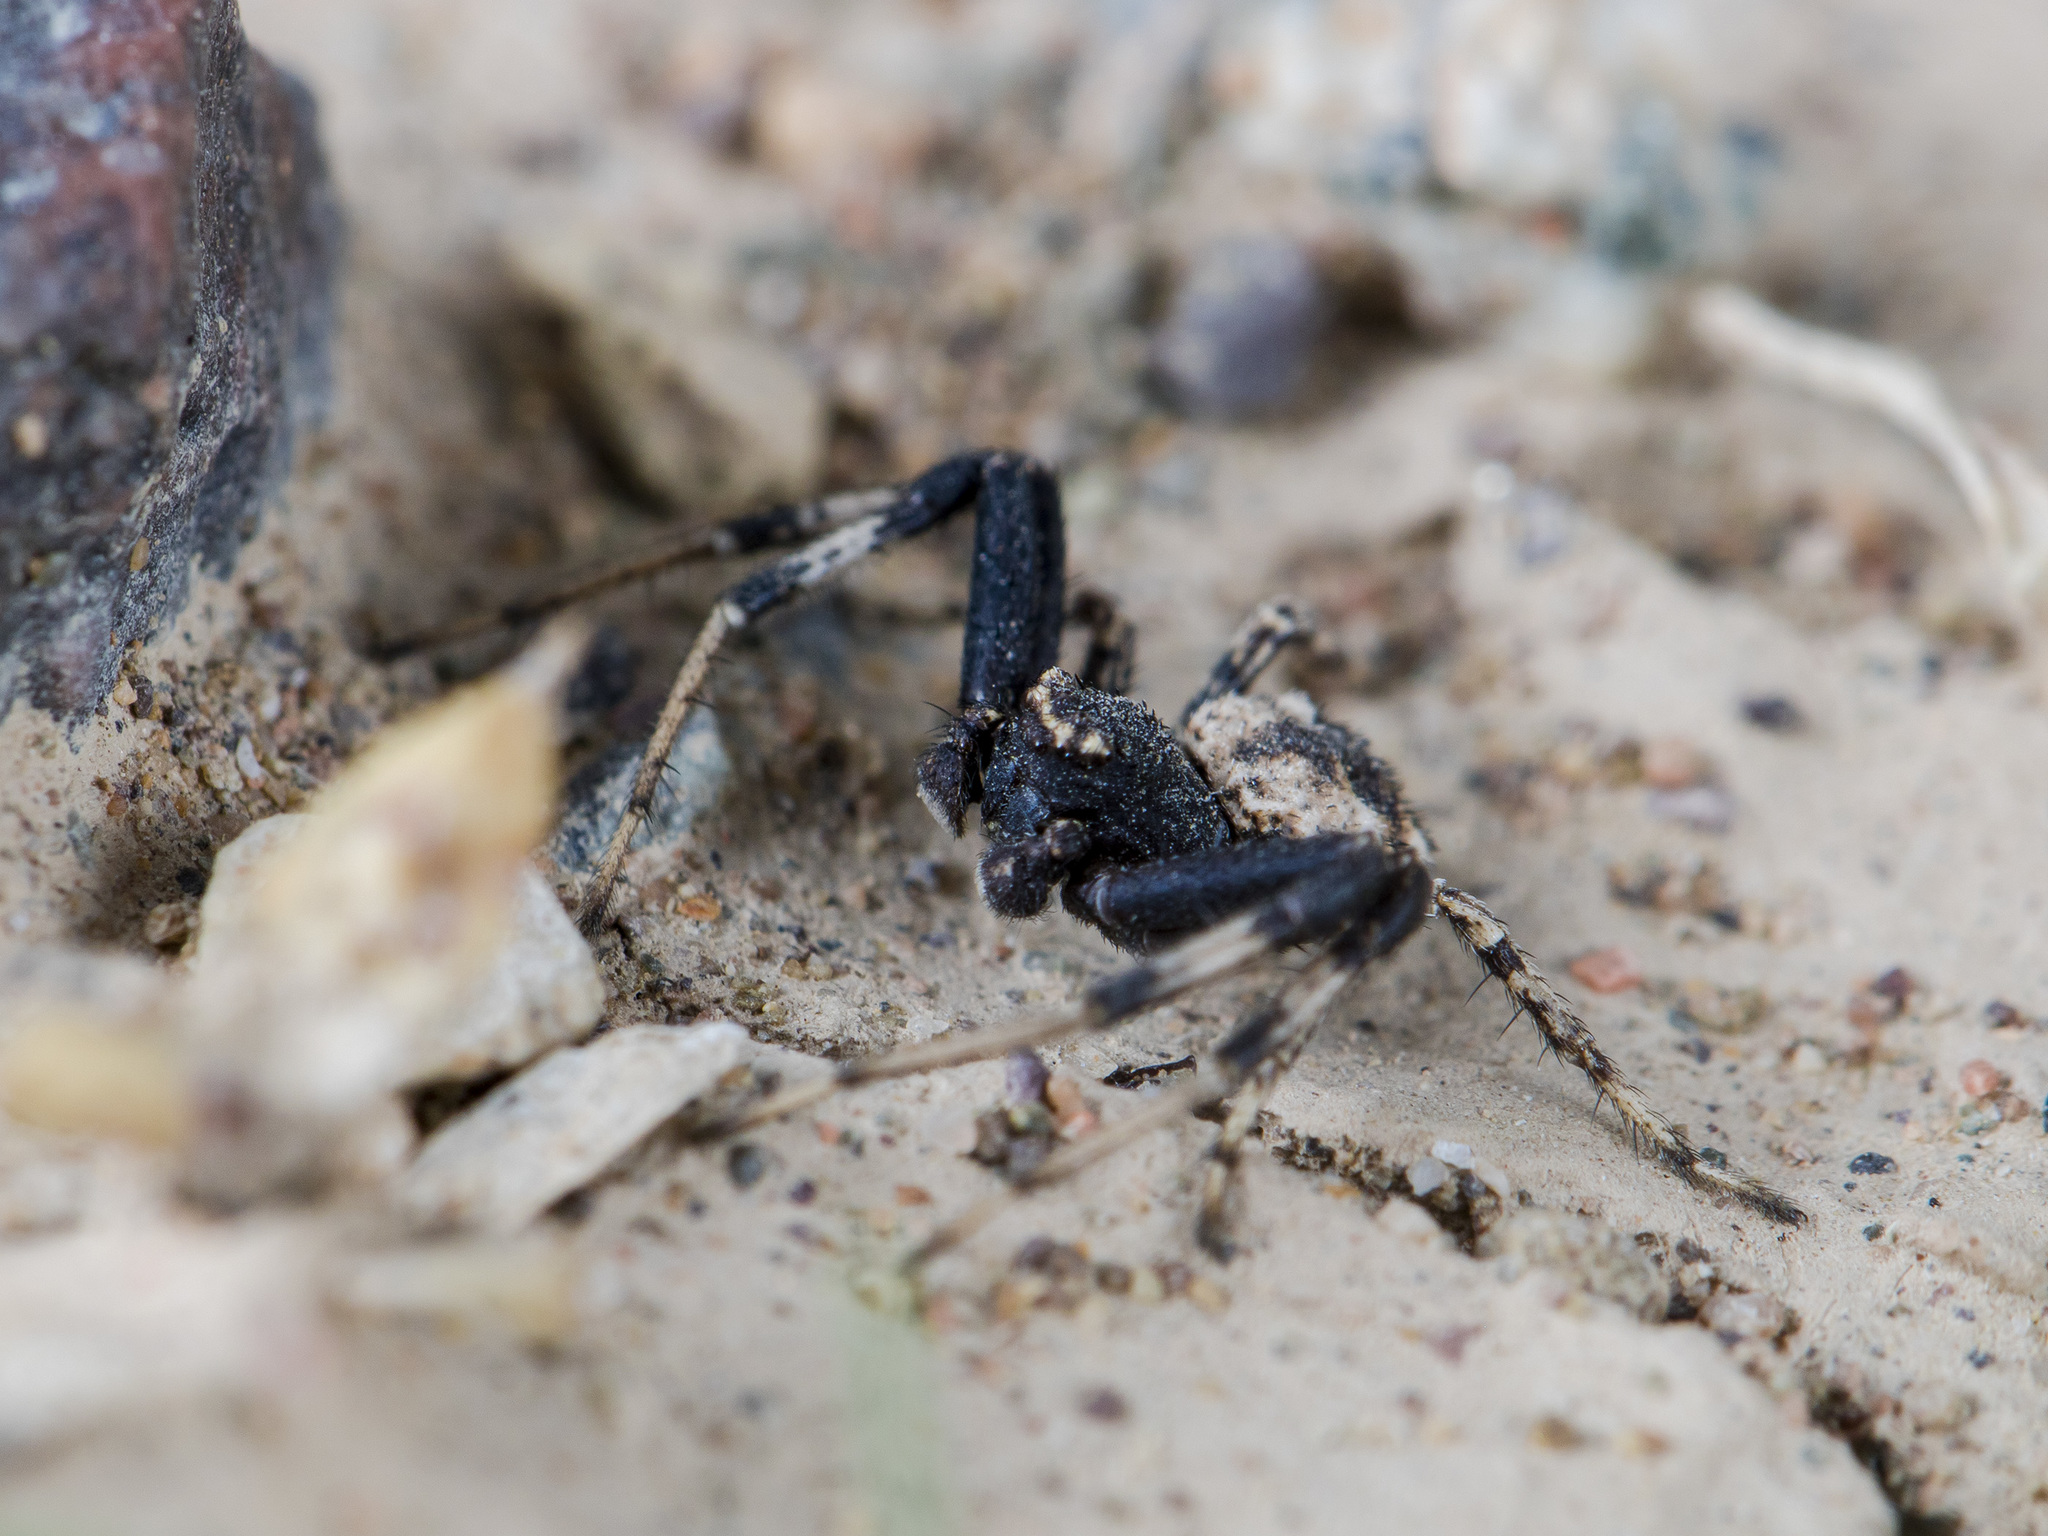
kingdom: Animalia
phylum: Arthropoda
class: Arachnida
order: Araneae
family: Thomisidae
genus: Ozyptila
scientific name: Ozyptila lugubris
